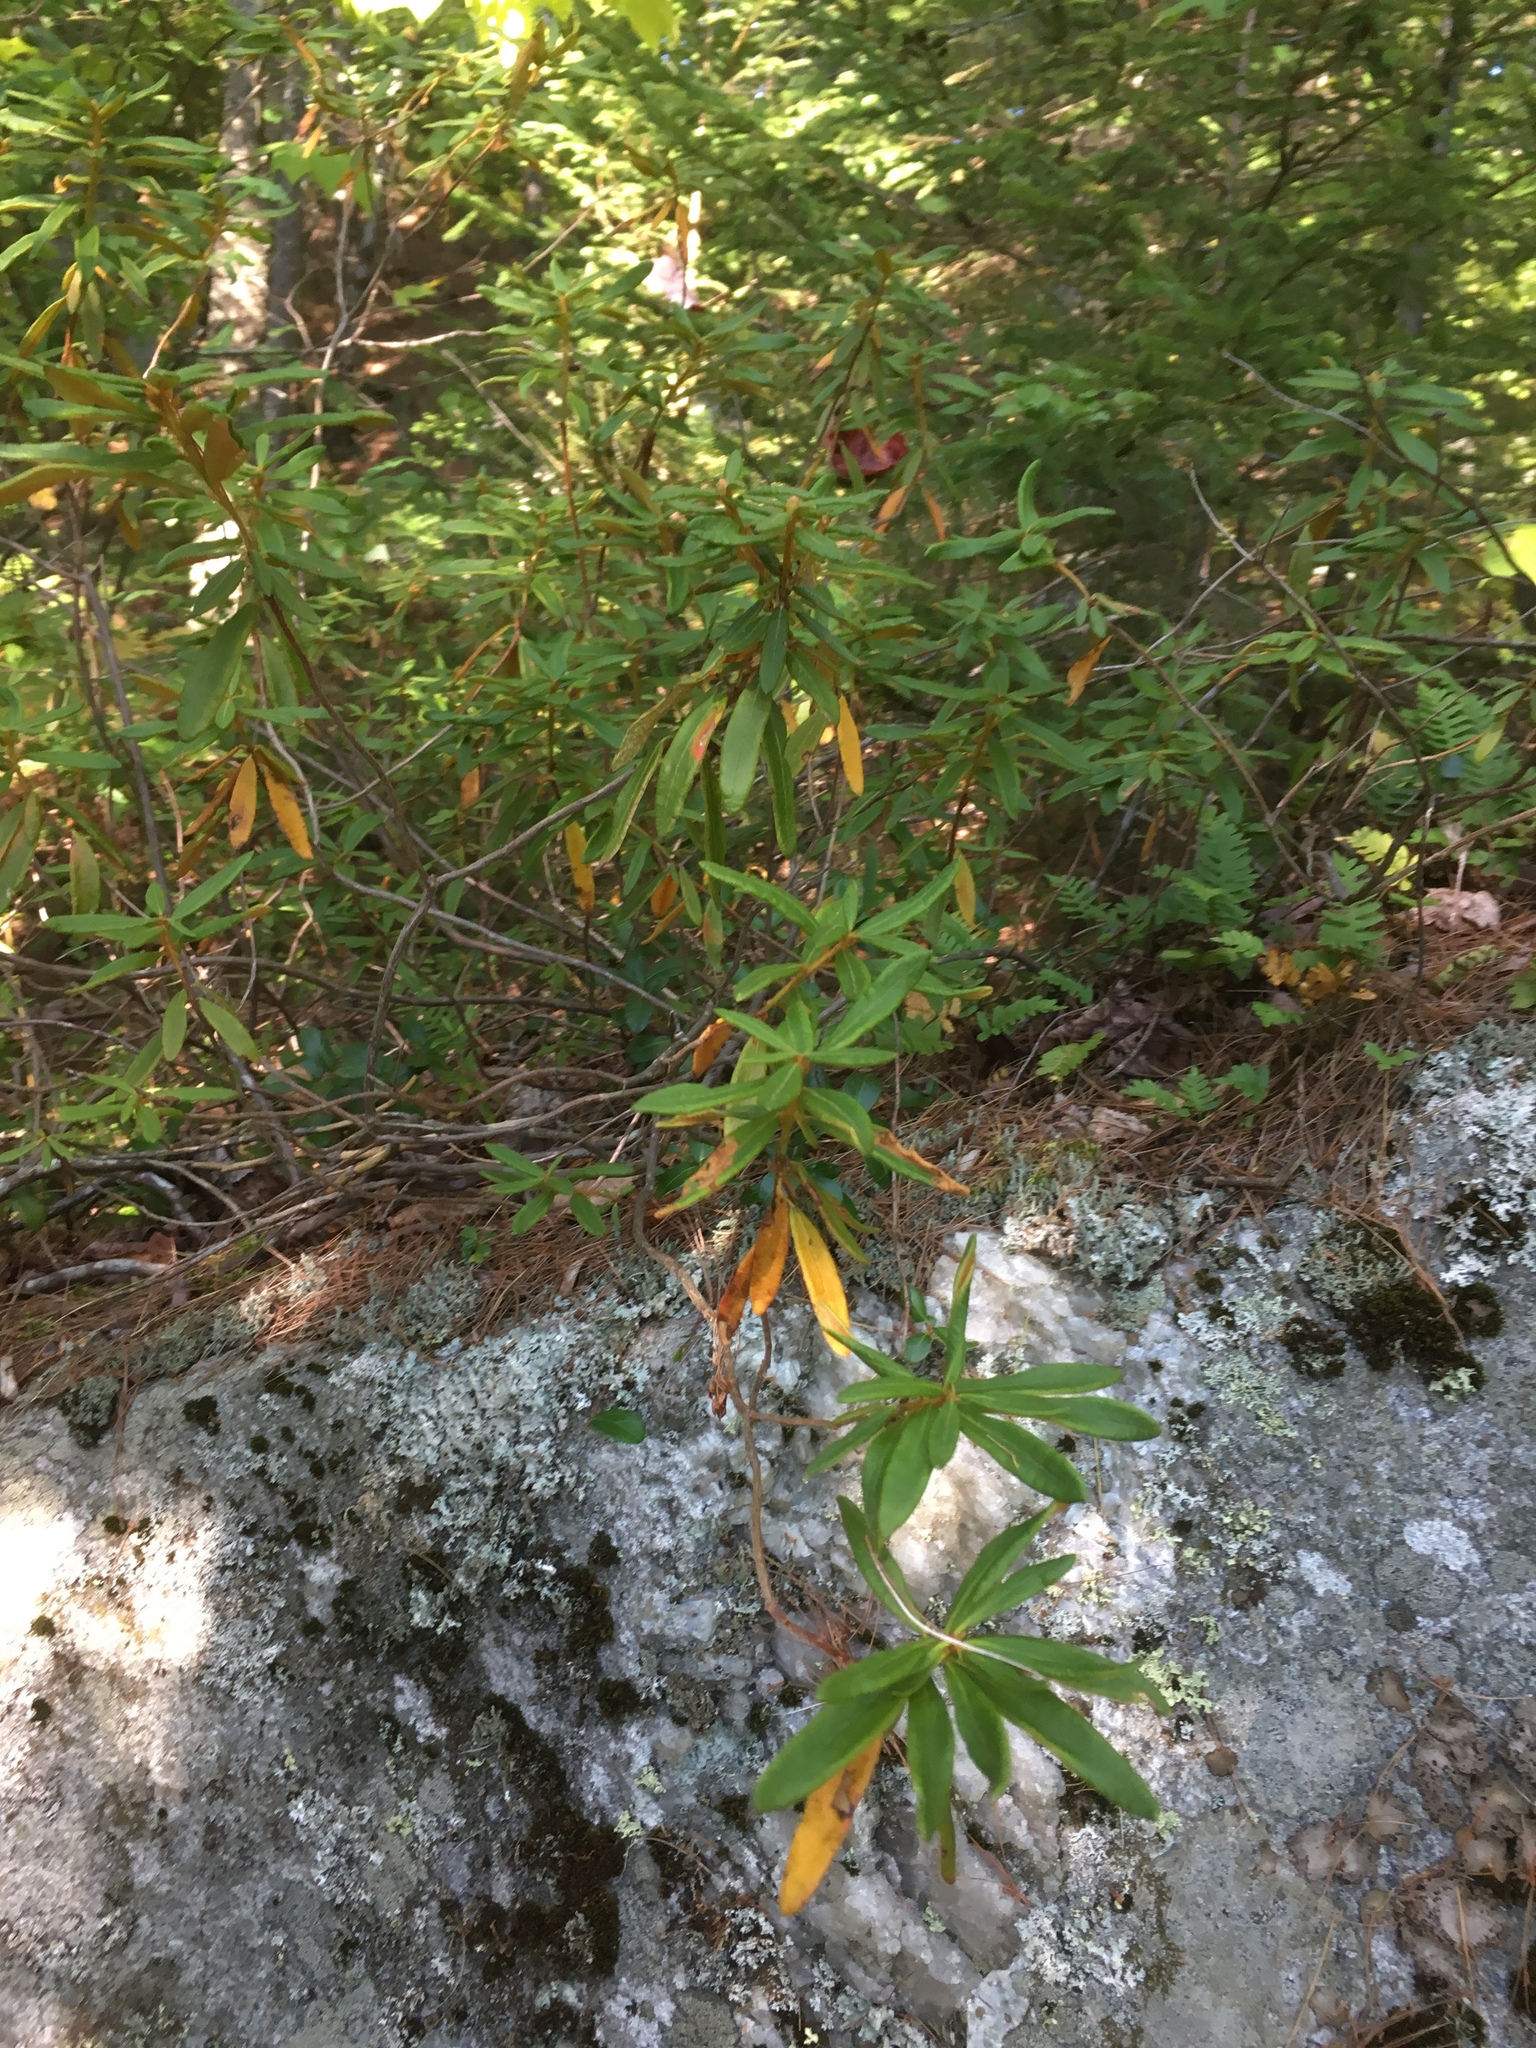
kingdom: Plantae
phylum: Tracheophyta
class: Magnoliopsida
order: Ericales
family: Ericaceae
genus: Rhododendron
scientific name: Rhododendron groenlandicum
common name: Bog labrador tea
